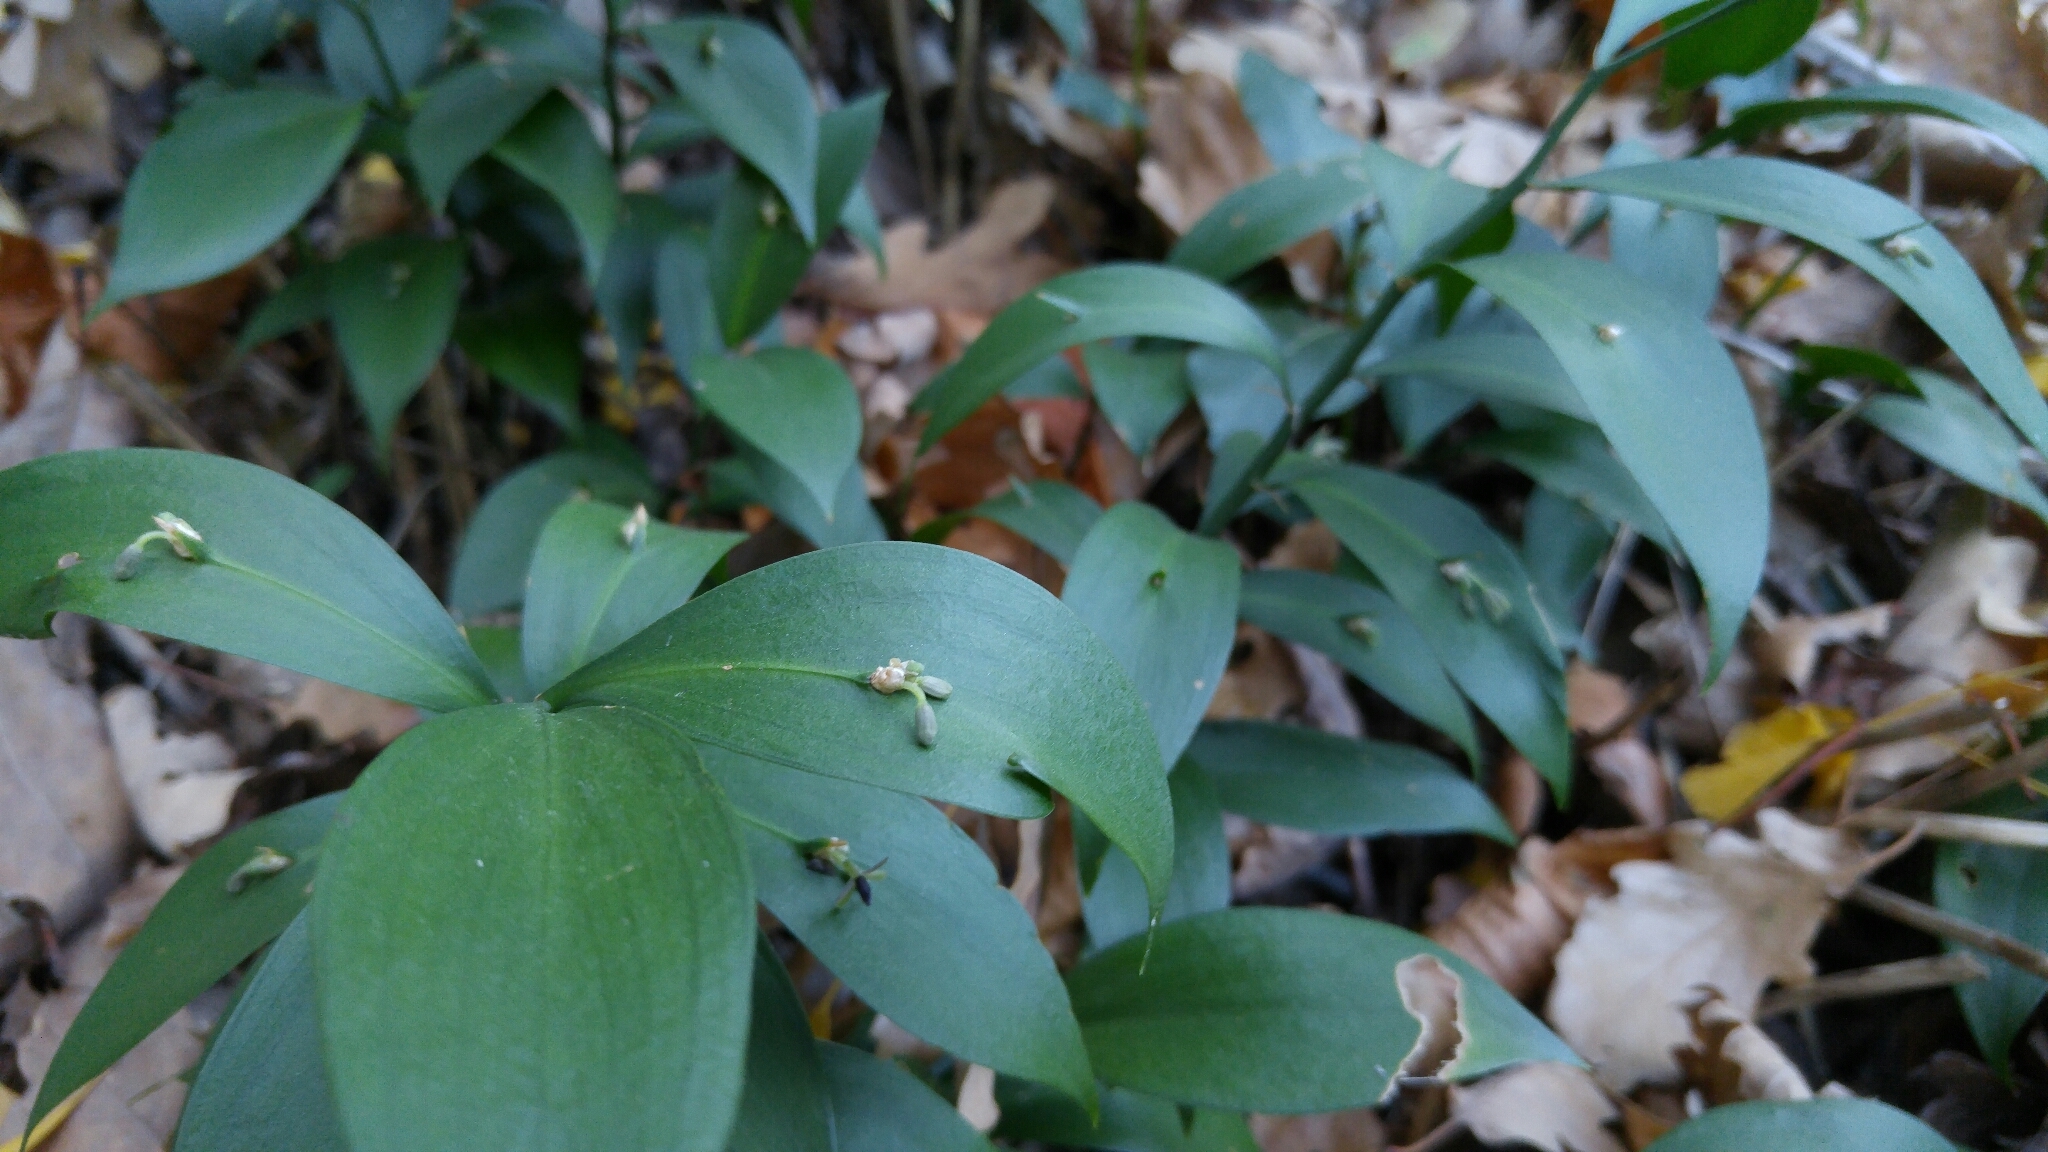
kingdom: Plantae
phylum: Tracheophyta
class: Liliopsida
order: Asparagales
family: Asparagaceae
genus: Ruscus
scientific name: Ruscus hypoglossum
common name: Spineless butcher's-broom
